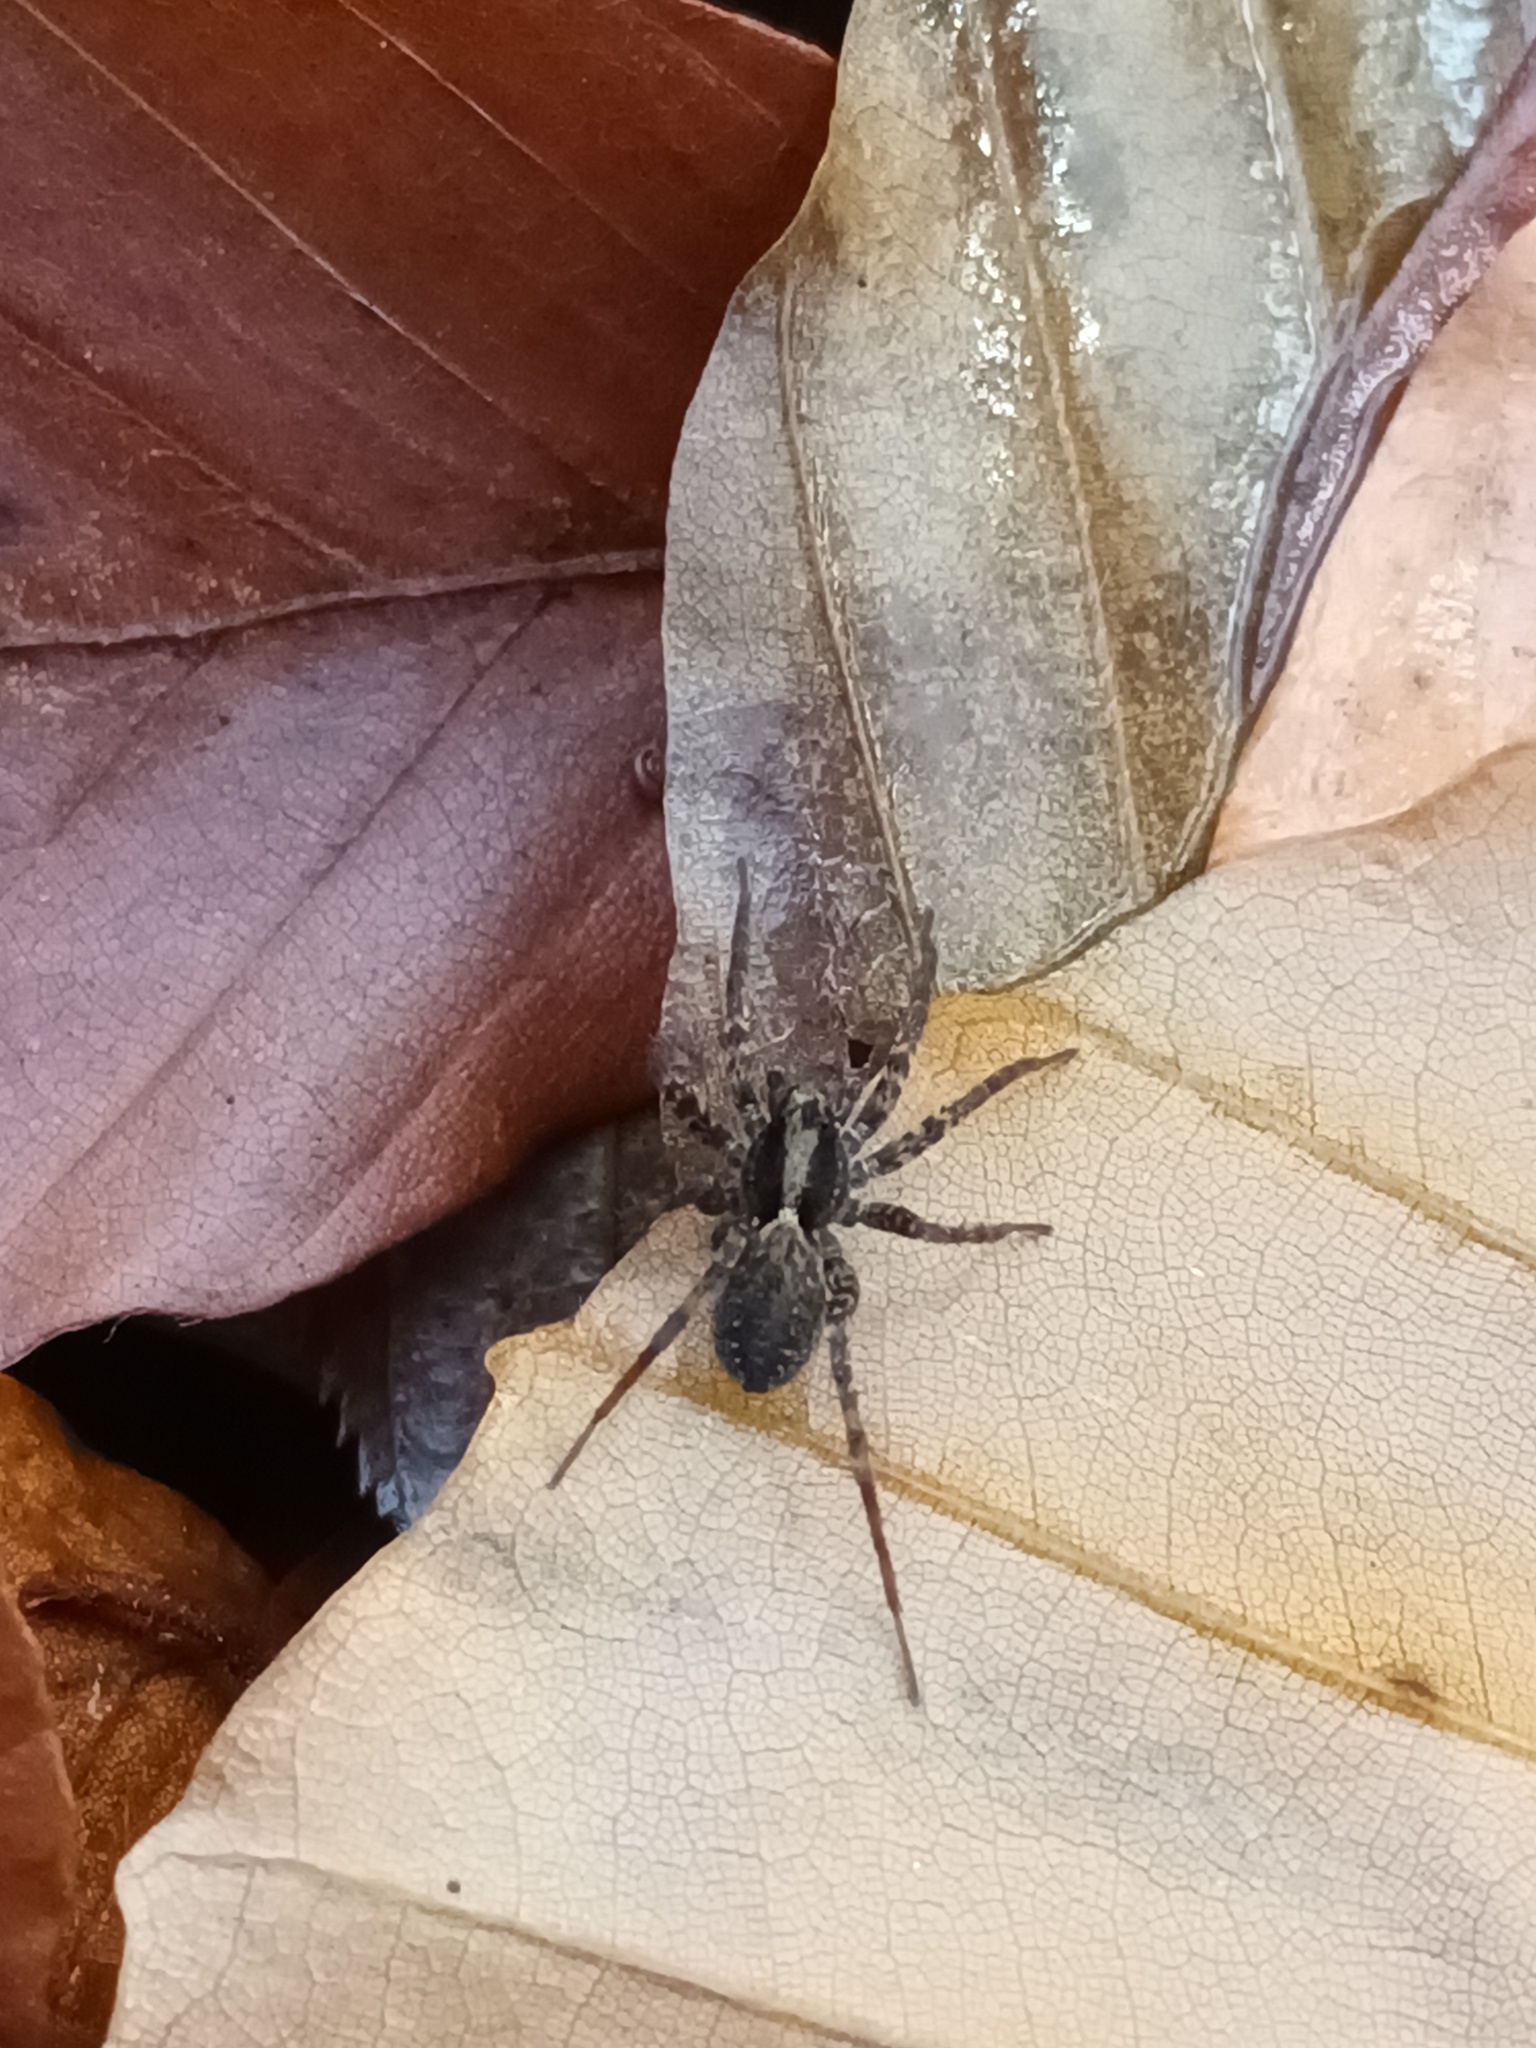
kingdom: Animalia
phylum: Arthropoda
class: Arachnida
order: Araneae
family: Lycosidae
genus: Pardosa
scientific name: Pardosa
